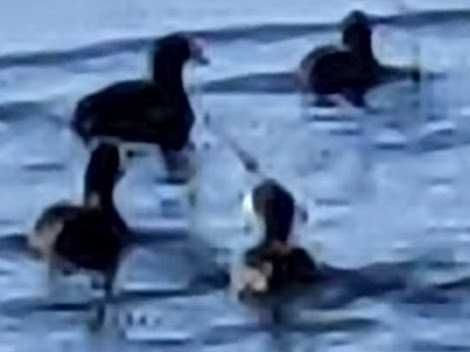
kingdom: Animalia
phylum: Chordata
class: Aves
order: Gruiformes
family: Rallidae
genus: Fulica
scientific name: Fulica americana
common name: American coot
